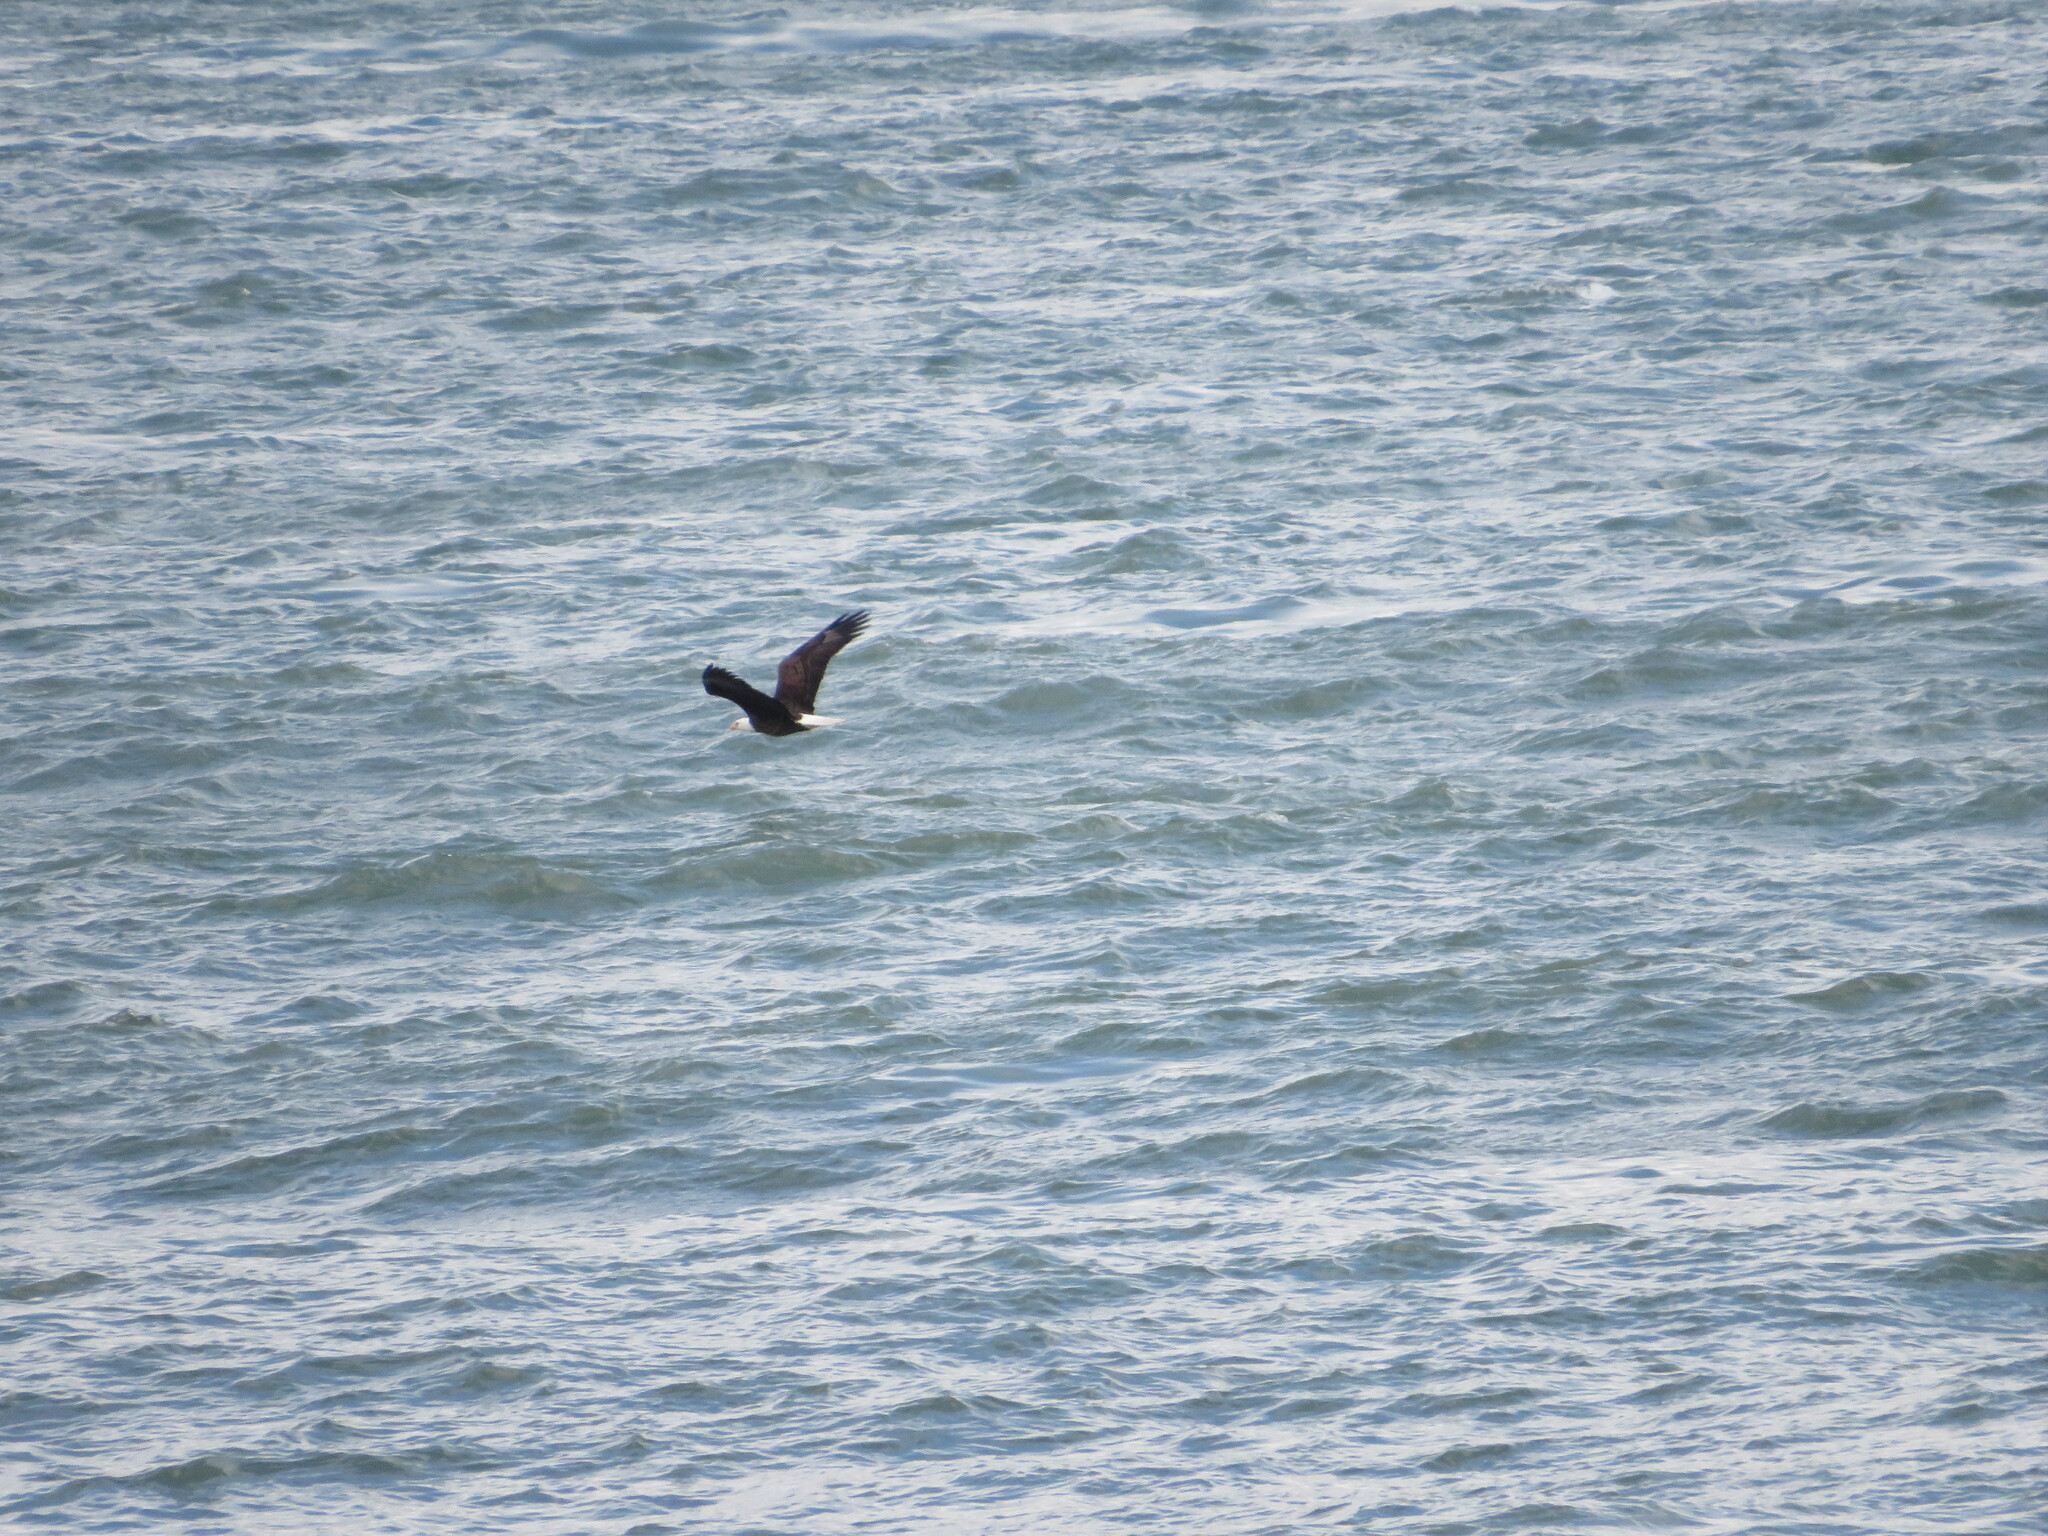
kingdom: Animalia
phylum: Chordata
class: Aves
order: Accipitriformes
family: Accipitridae
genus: Haliaeetus
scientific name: Haliaeetus leucocephalus
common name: Bald eagle
